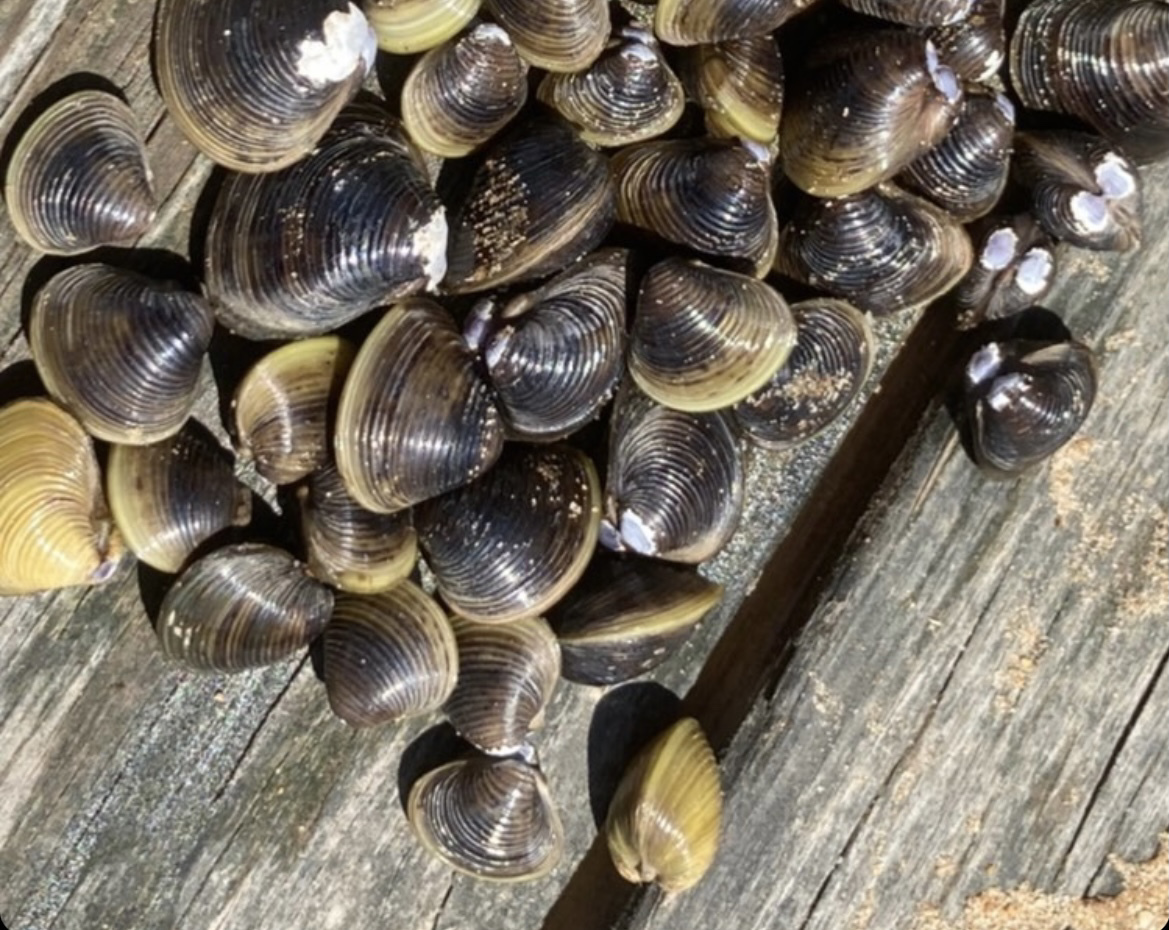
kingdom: Animalia
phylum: Mollusca
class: Bivalvia
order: Venerida
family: Cyrenidae
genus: Corbicula
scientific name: Corbicula fluminea
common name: Asian clam
